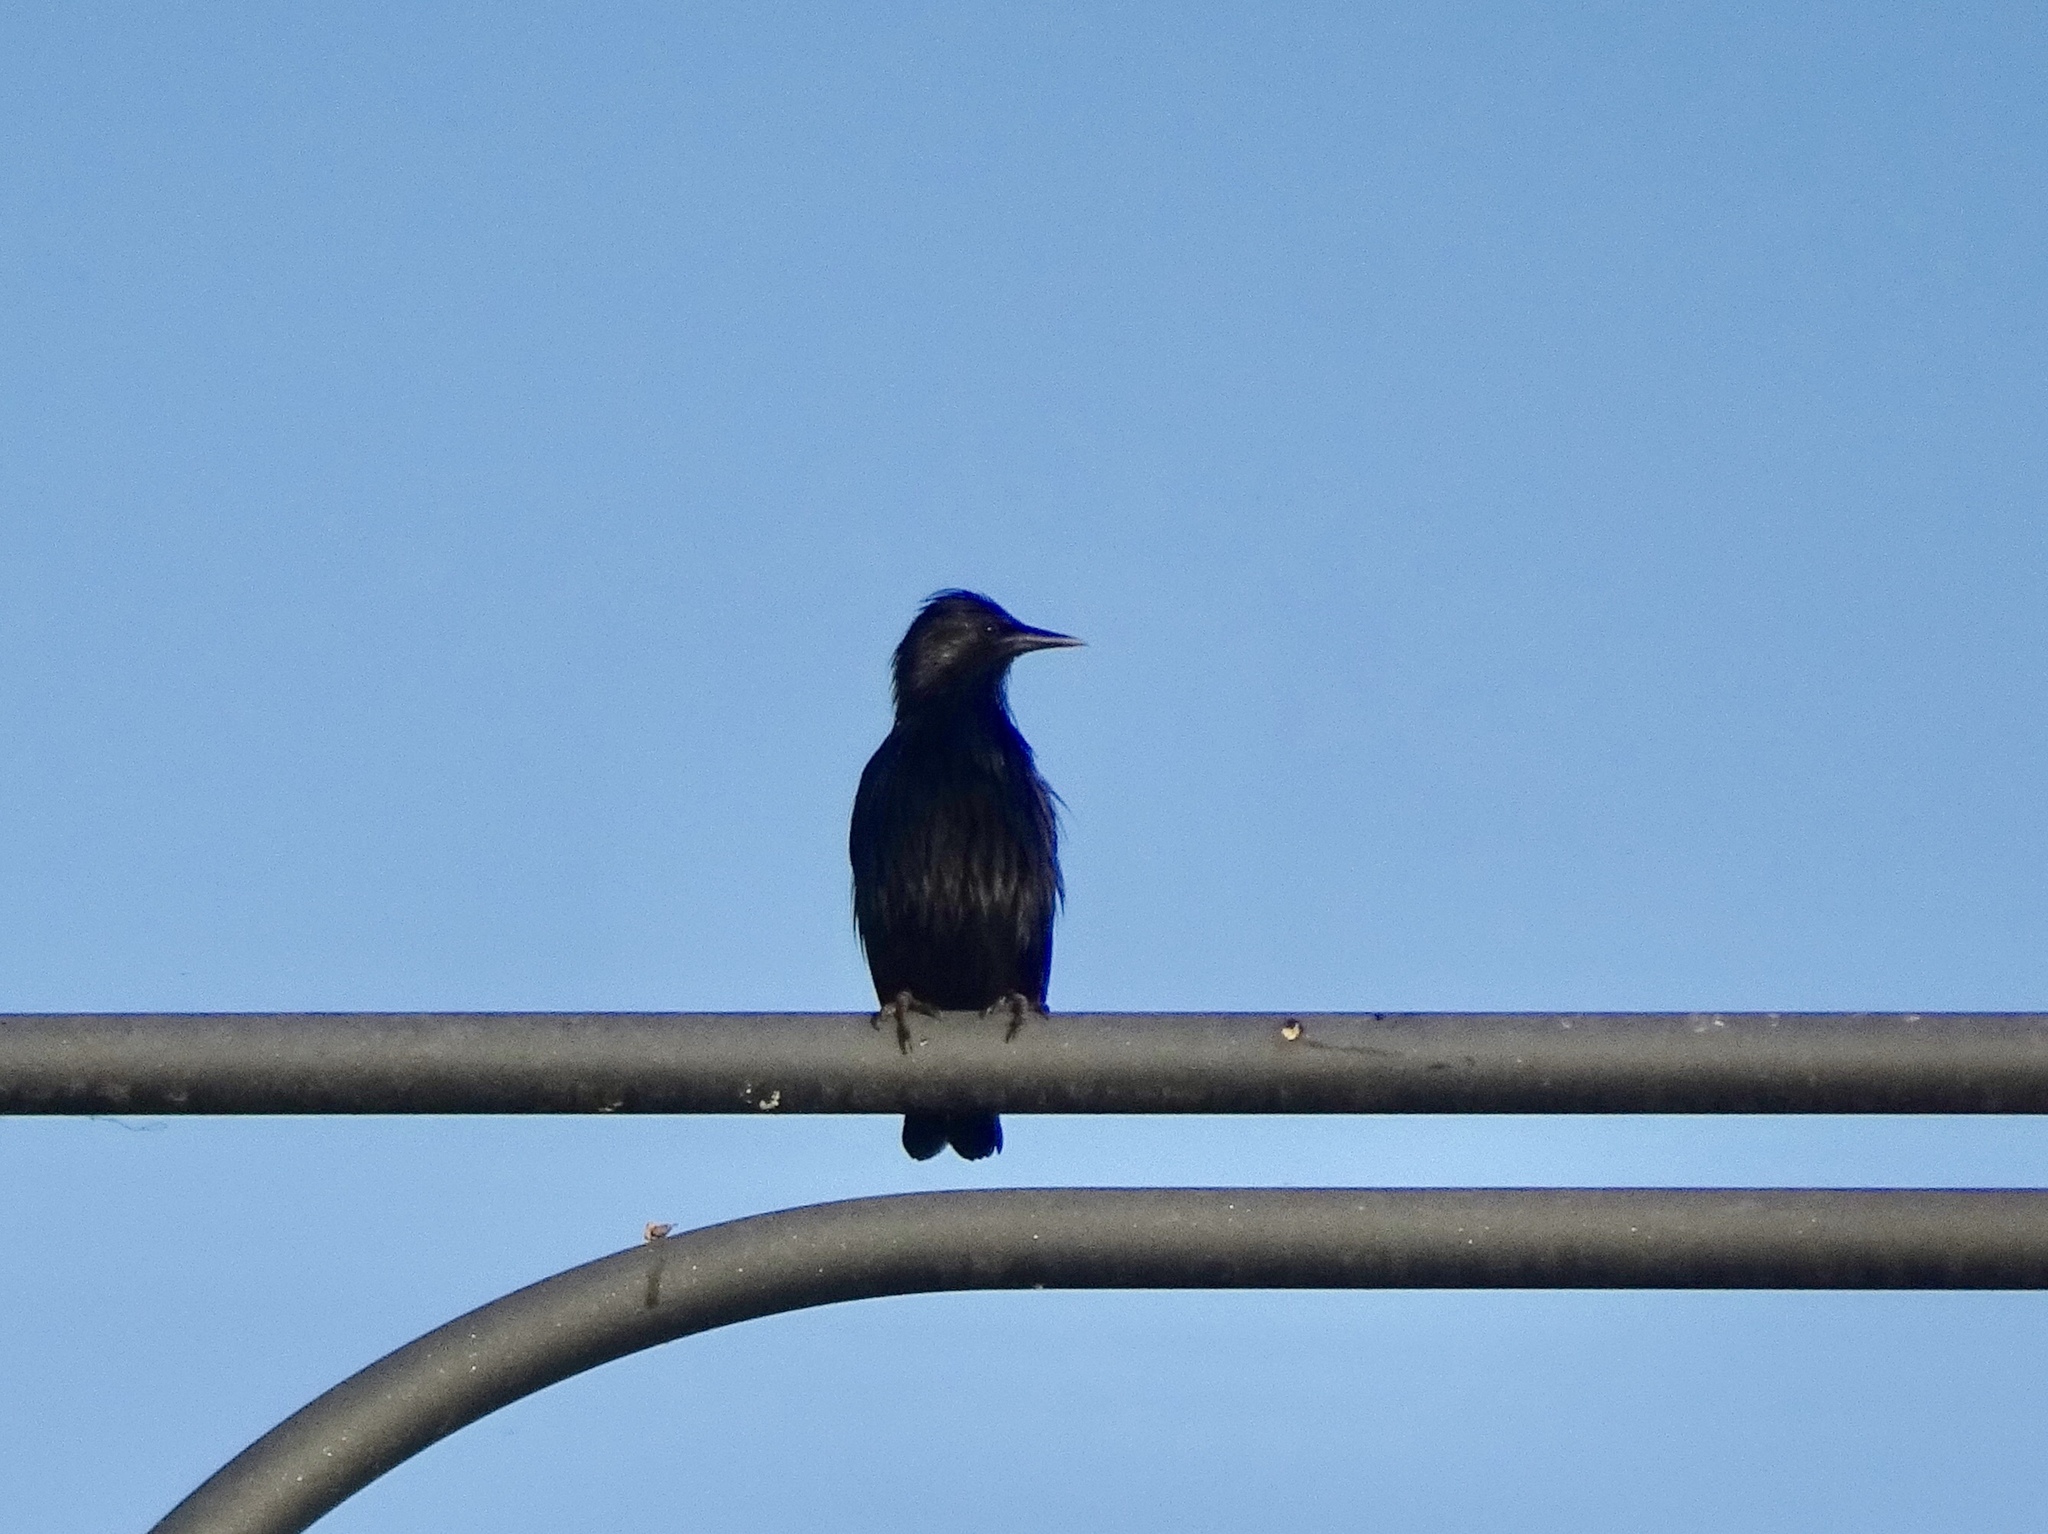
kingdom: Animalia
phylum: Chordata
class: Aves
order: Passeriformes
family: Sturnidae
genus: Sturnus
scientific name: Sturnus unicolor
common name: Spotless starling
